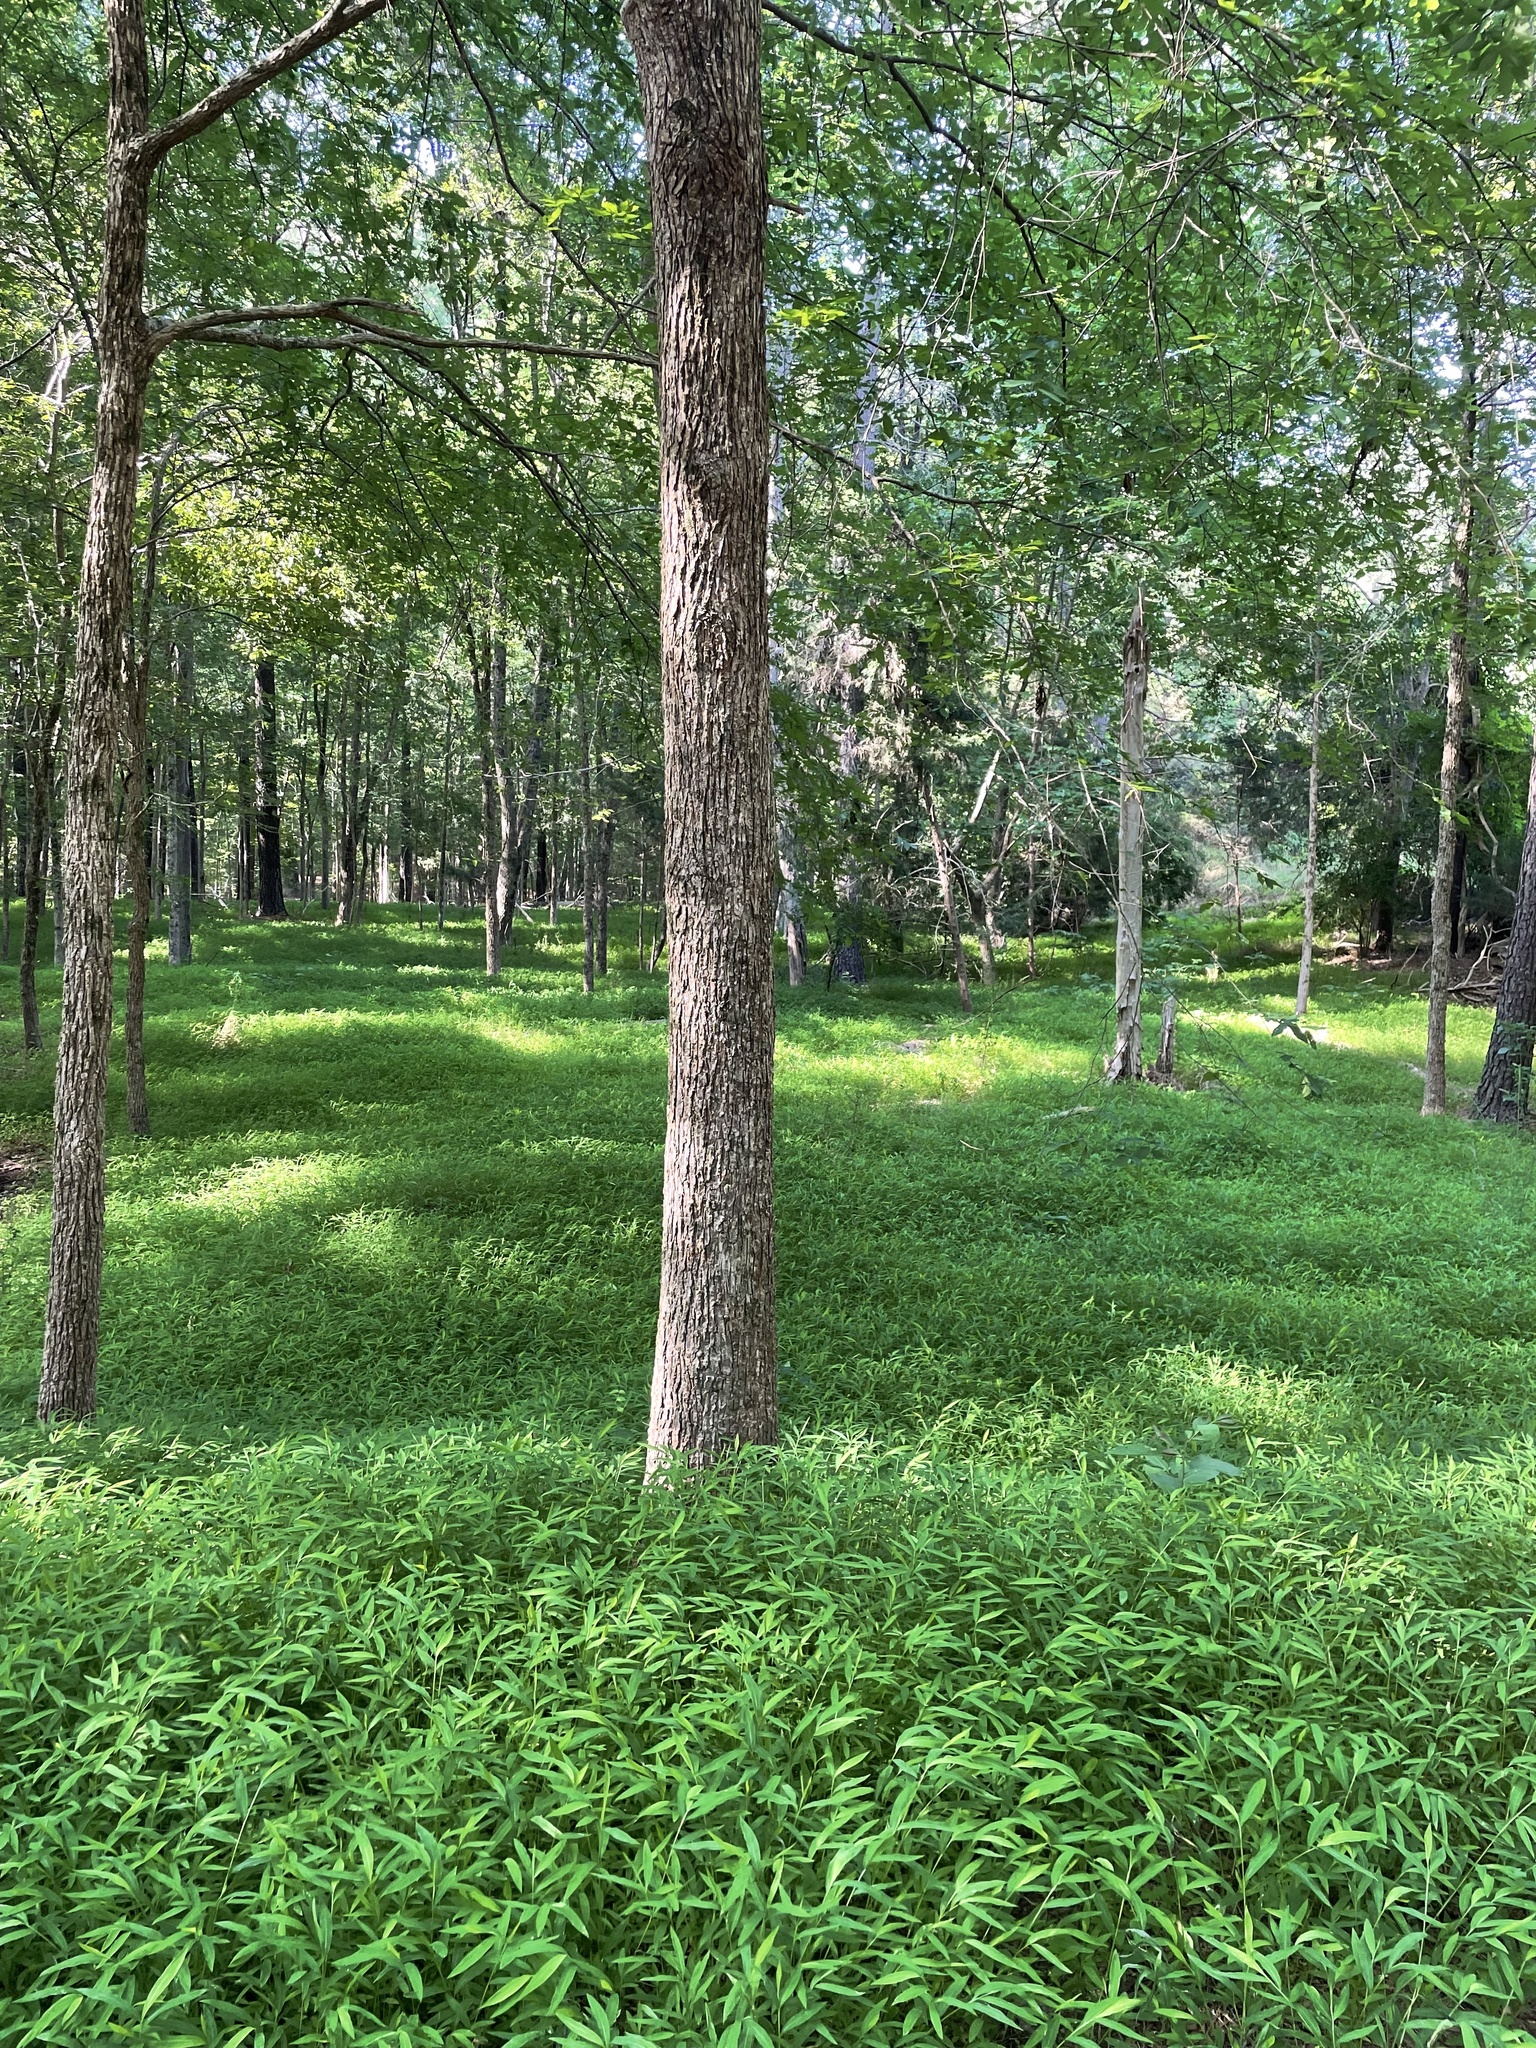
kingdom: Plantae
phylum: Tracheophyta
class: Liliopsida
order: Poales
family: Poaceae
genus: Microstegium
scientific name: Microstegium vimineum
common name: Japanese stiltgrass
